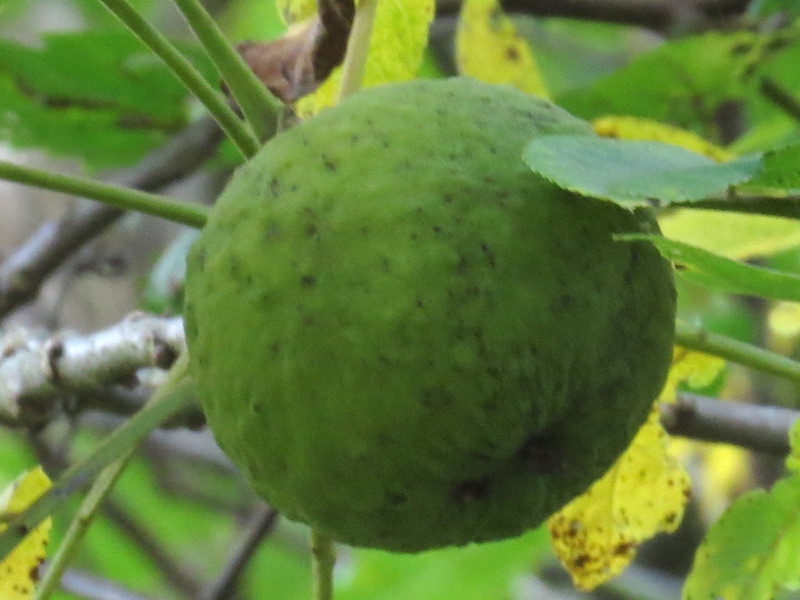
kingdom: Plantae
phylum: Tracheophyta
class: Magnoliopsida
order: Fagales
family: Juglandaceae
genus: Juglans
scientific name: Juglans nigra
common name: Black walnut
